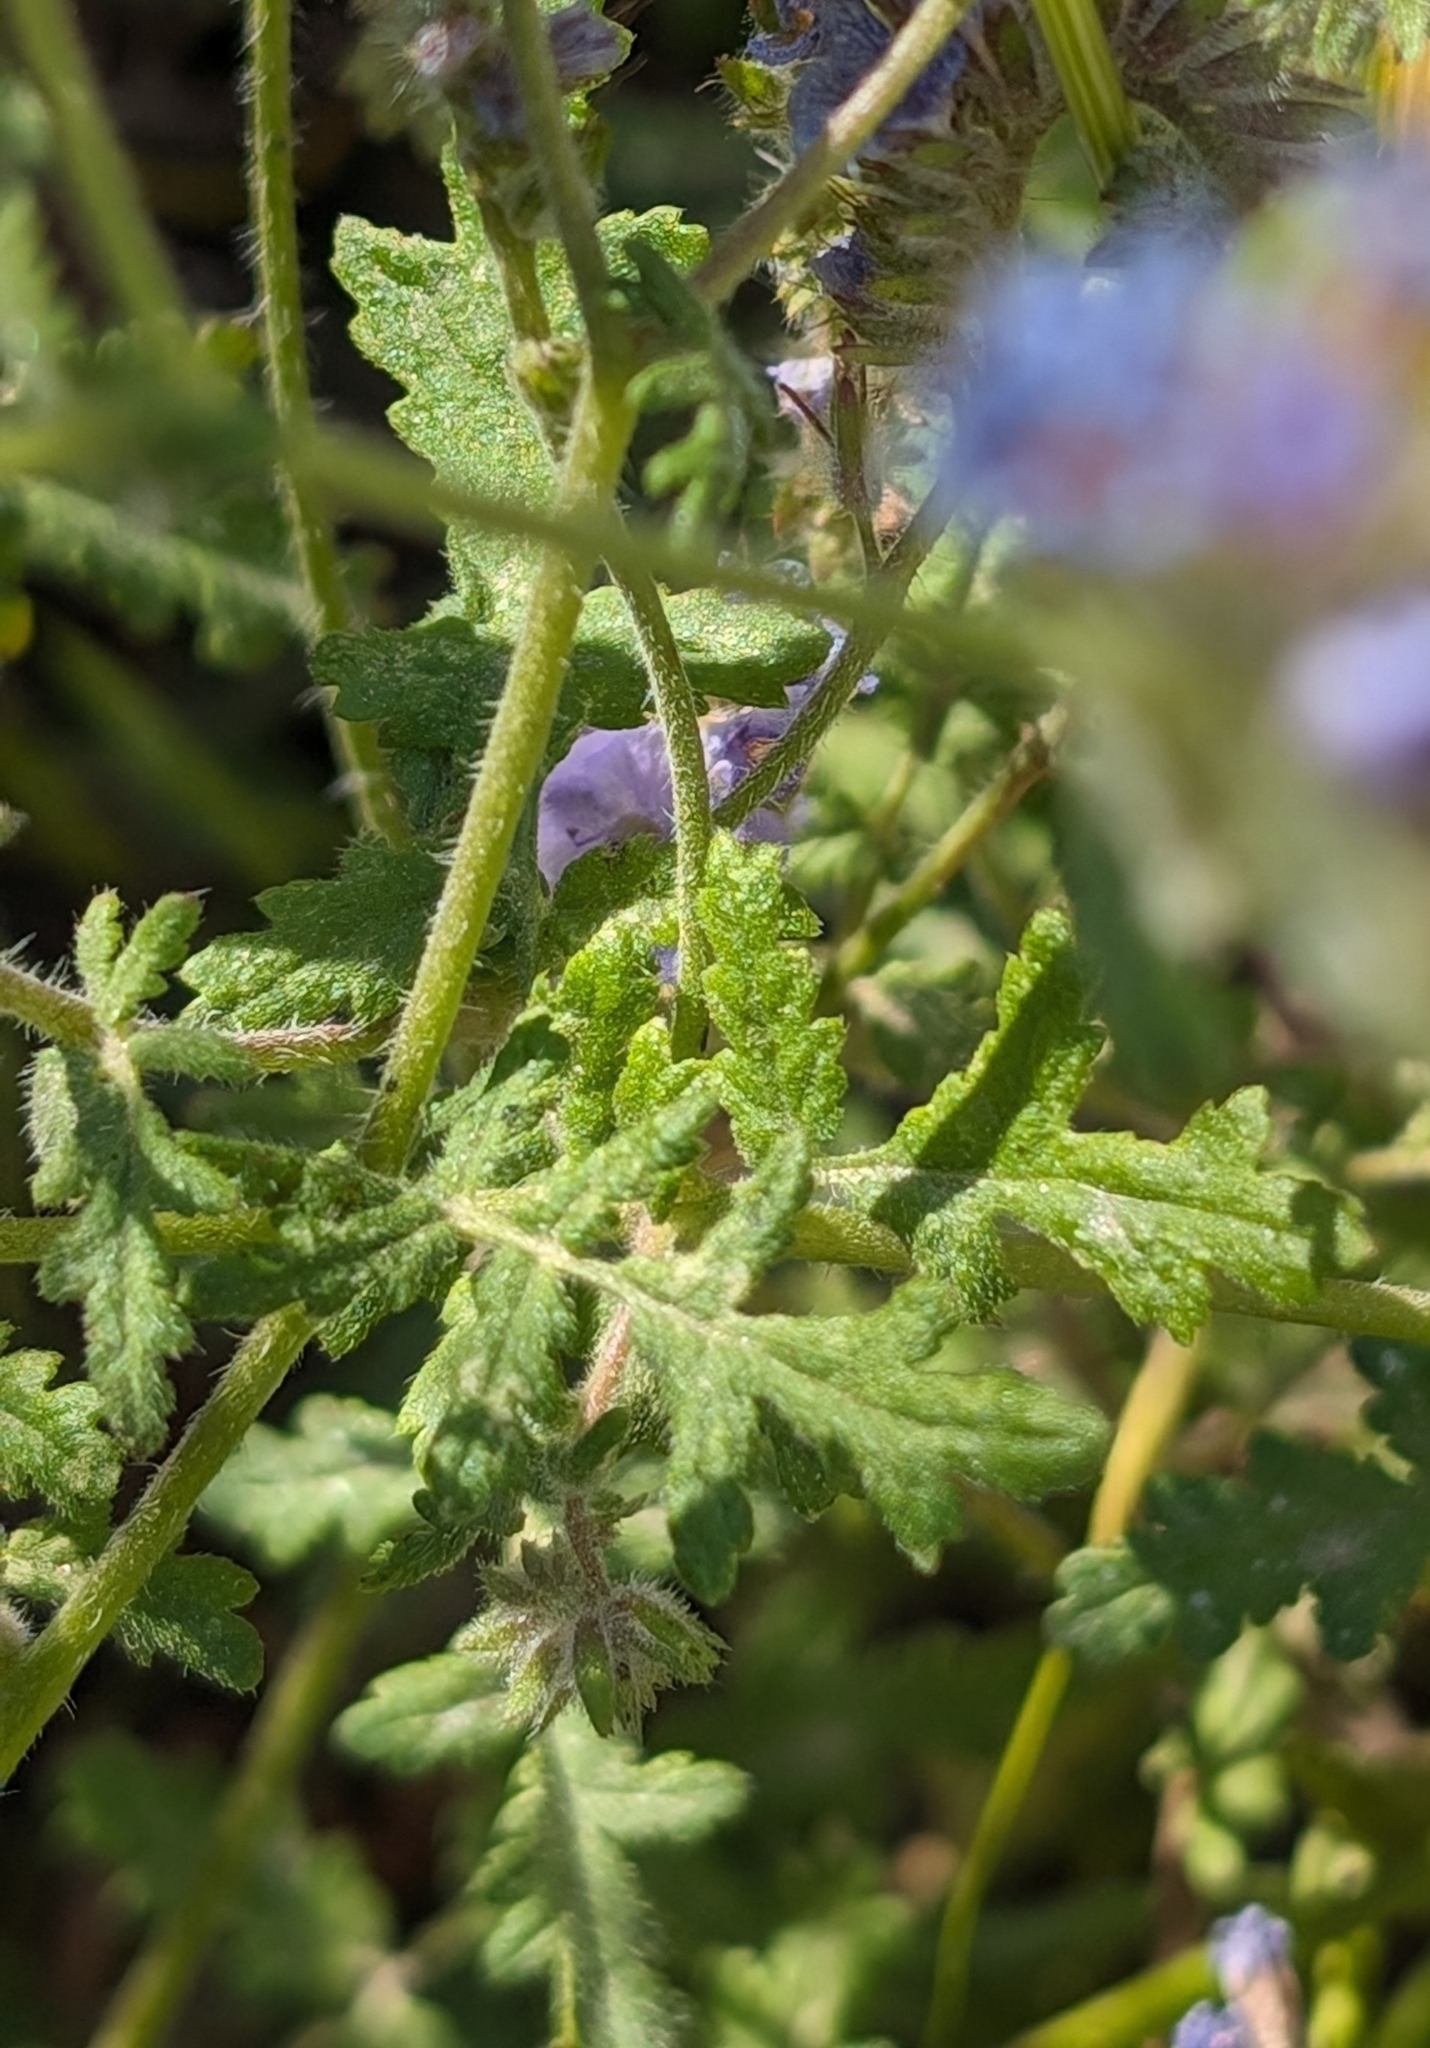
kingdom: Plantae
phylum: Tracheophyta
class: Magnoliopsida
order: Boraginales
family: Hydrophyllaceae
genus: Phacelia
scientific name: Phacelia distans
